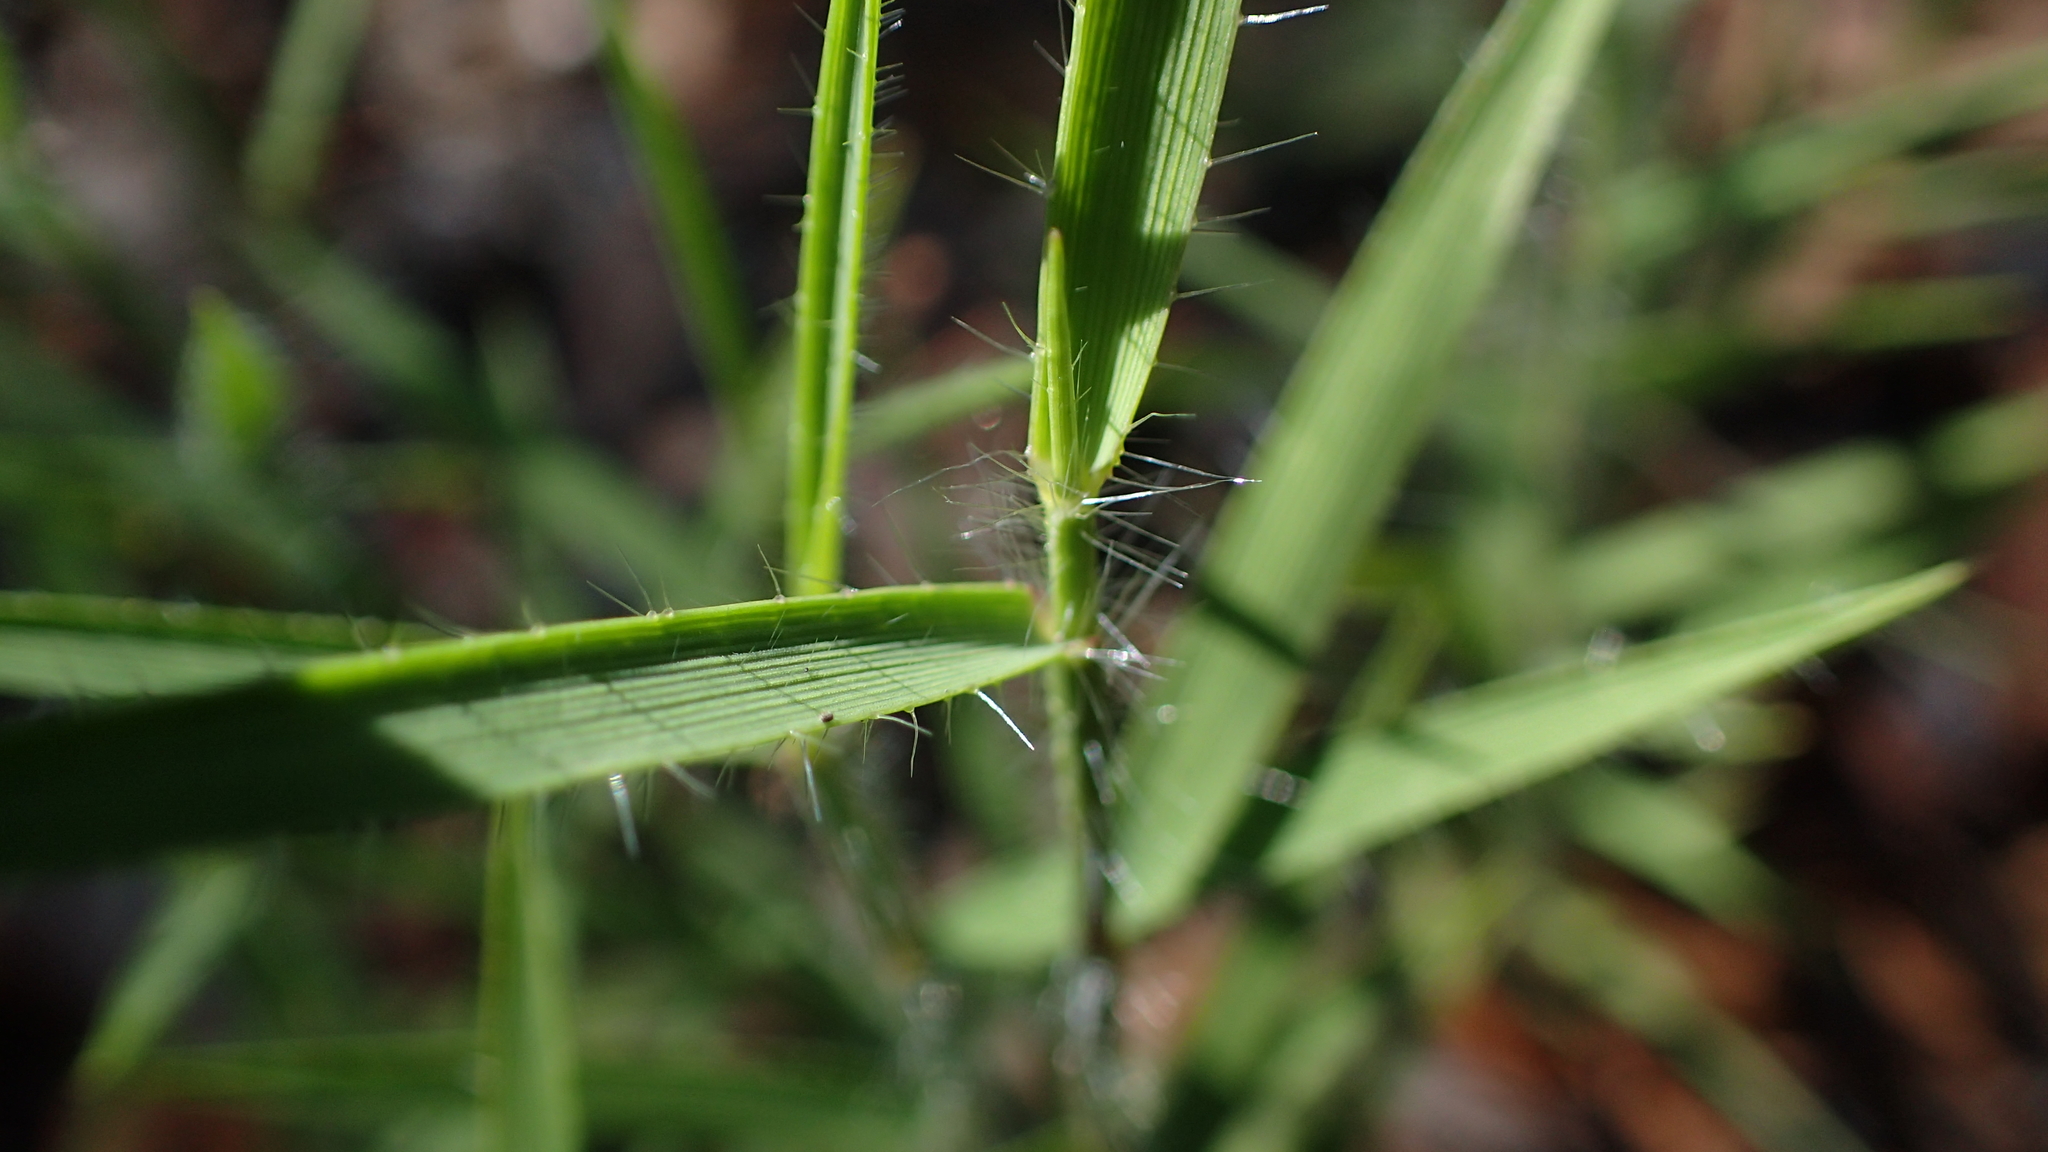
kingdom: Plantae
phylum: Tracheophyta
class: Liliopsida
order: Poales
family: Poaceae
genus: Tristachya
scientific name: Tristachya humbertii
